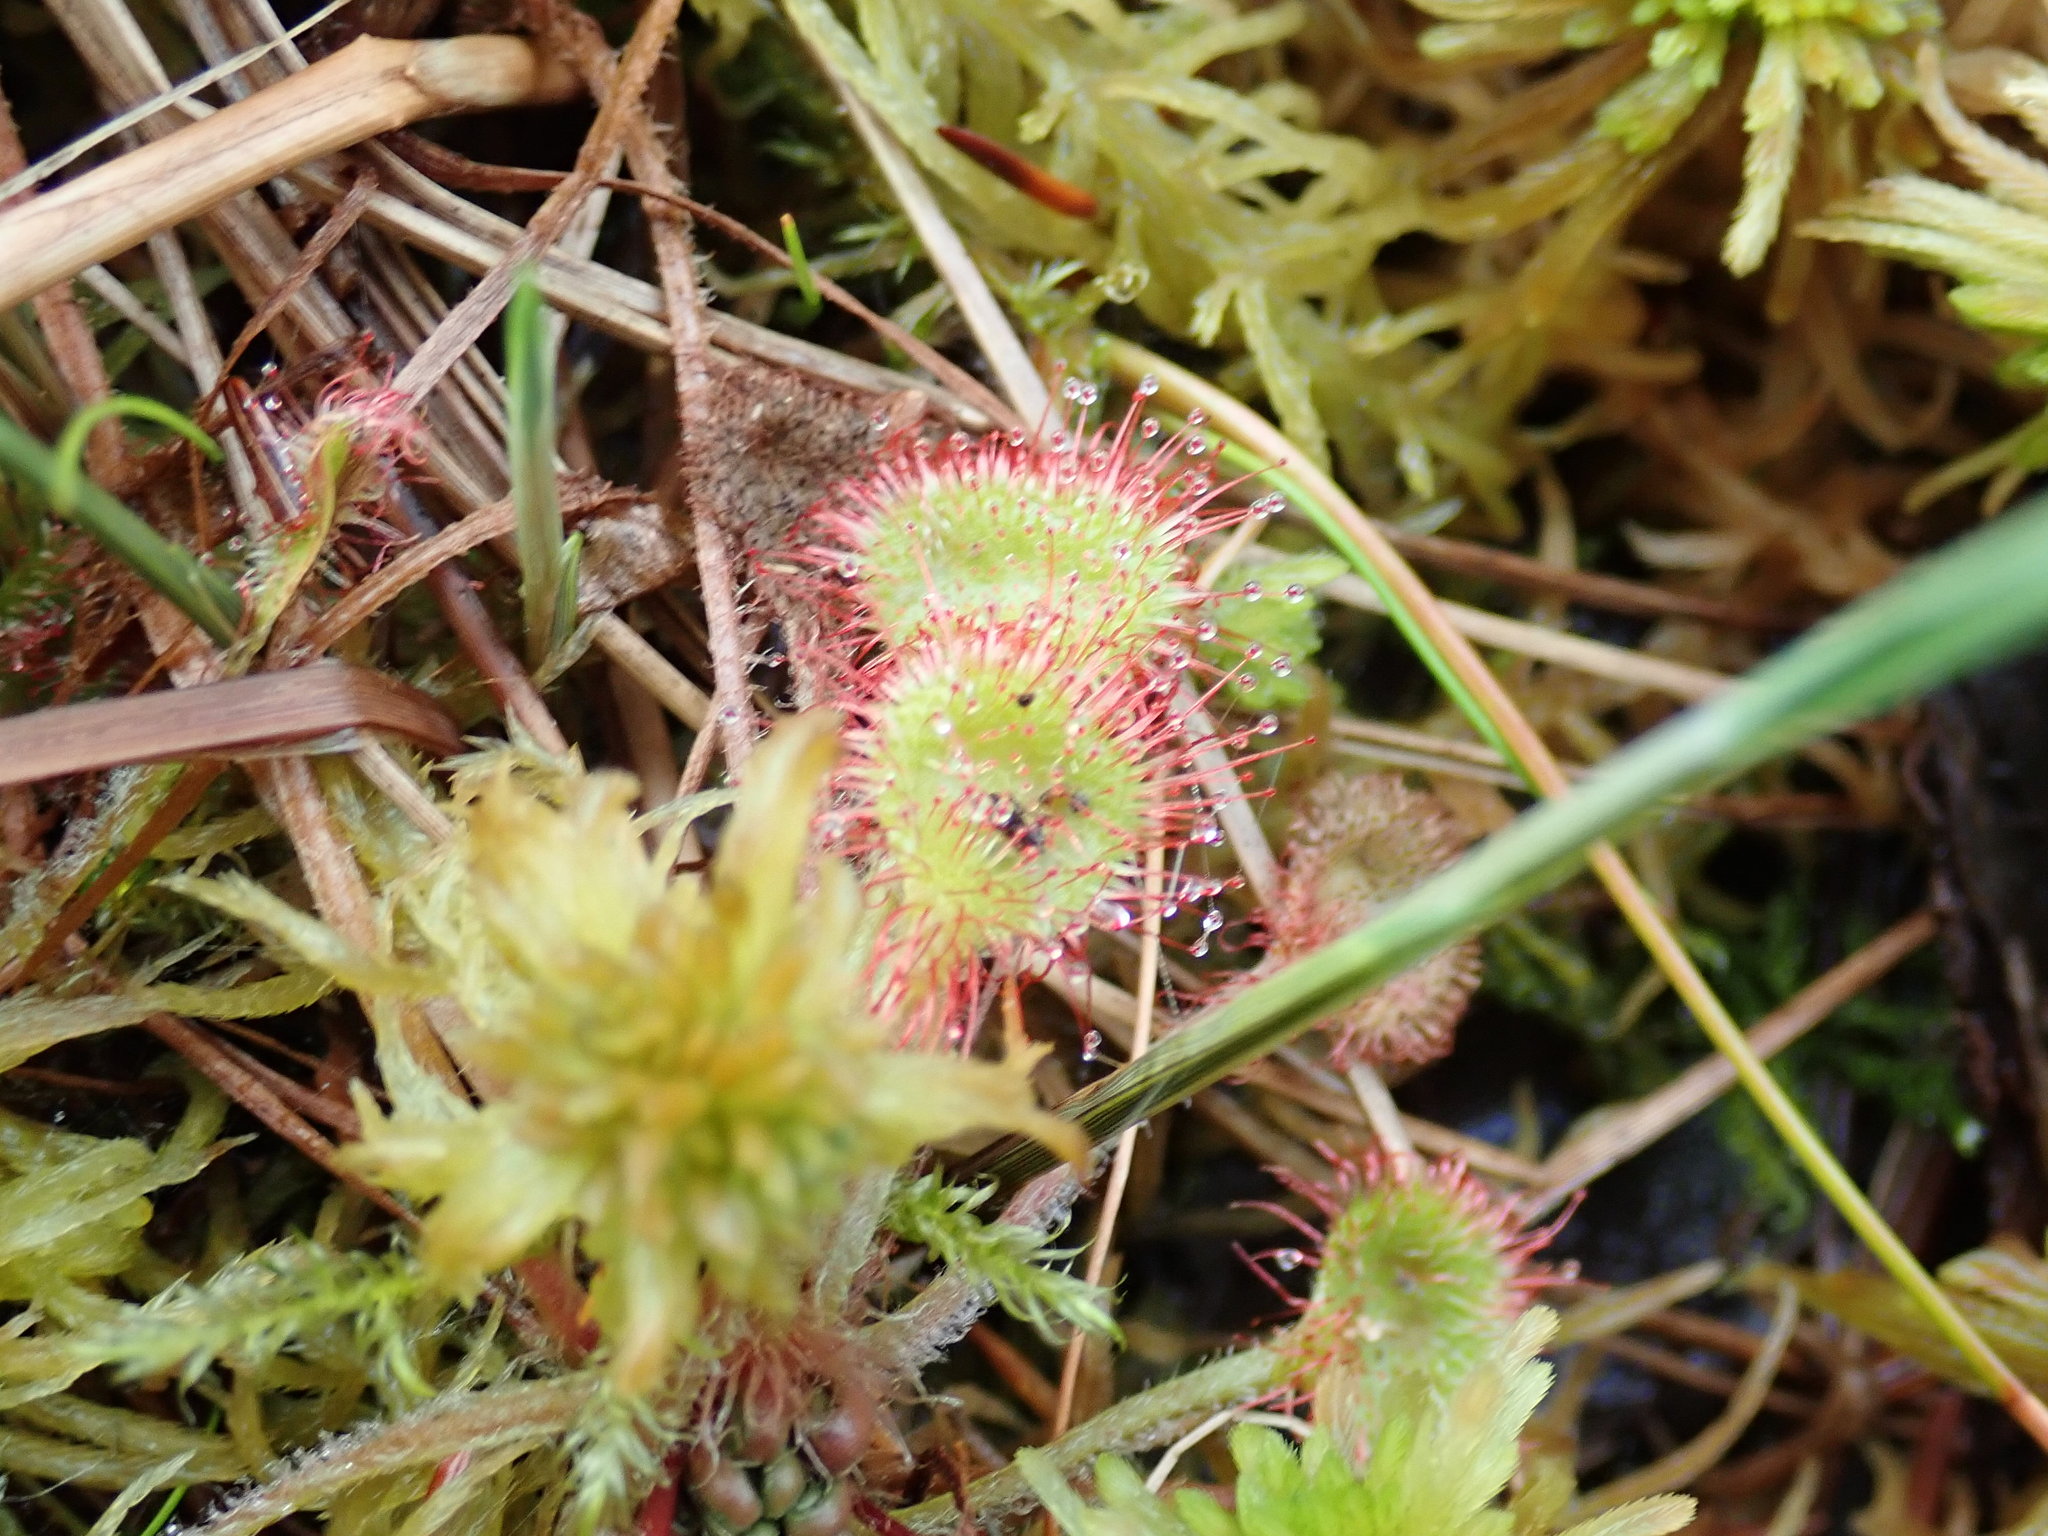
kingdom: Plantae
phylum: Tracheophyta
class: Magnoliopsida
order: Caryophyllales
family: Droseraceae
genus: Drosera
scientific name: Drosera rotundifolia
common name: Round-leaved sundew
